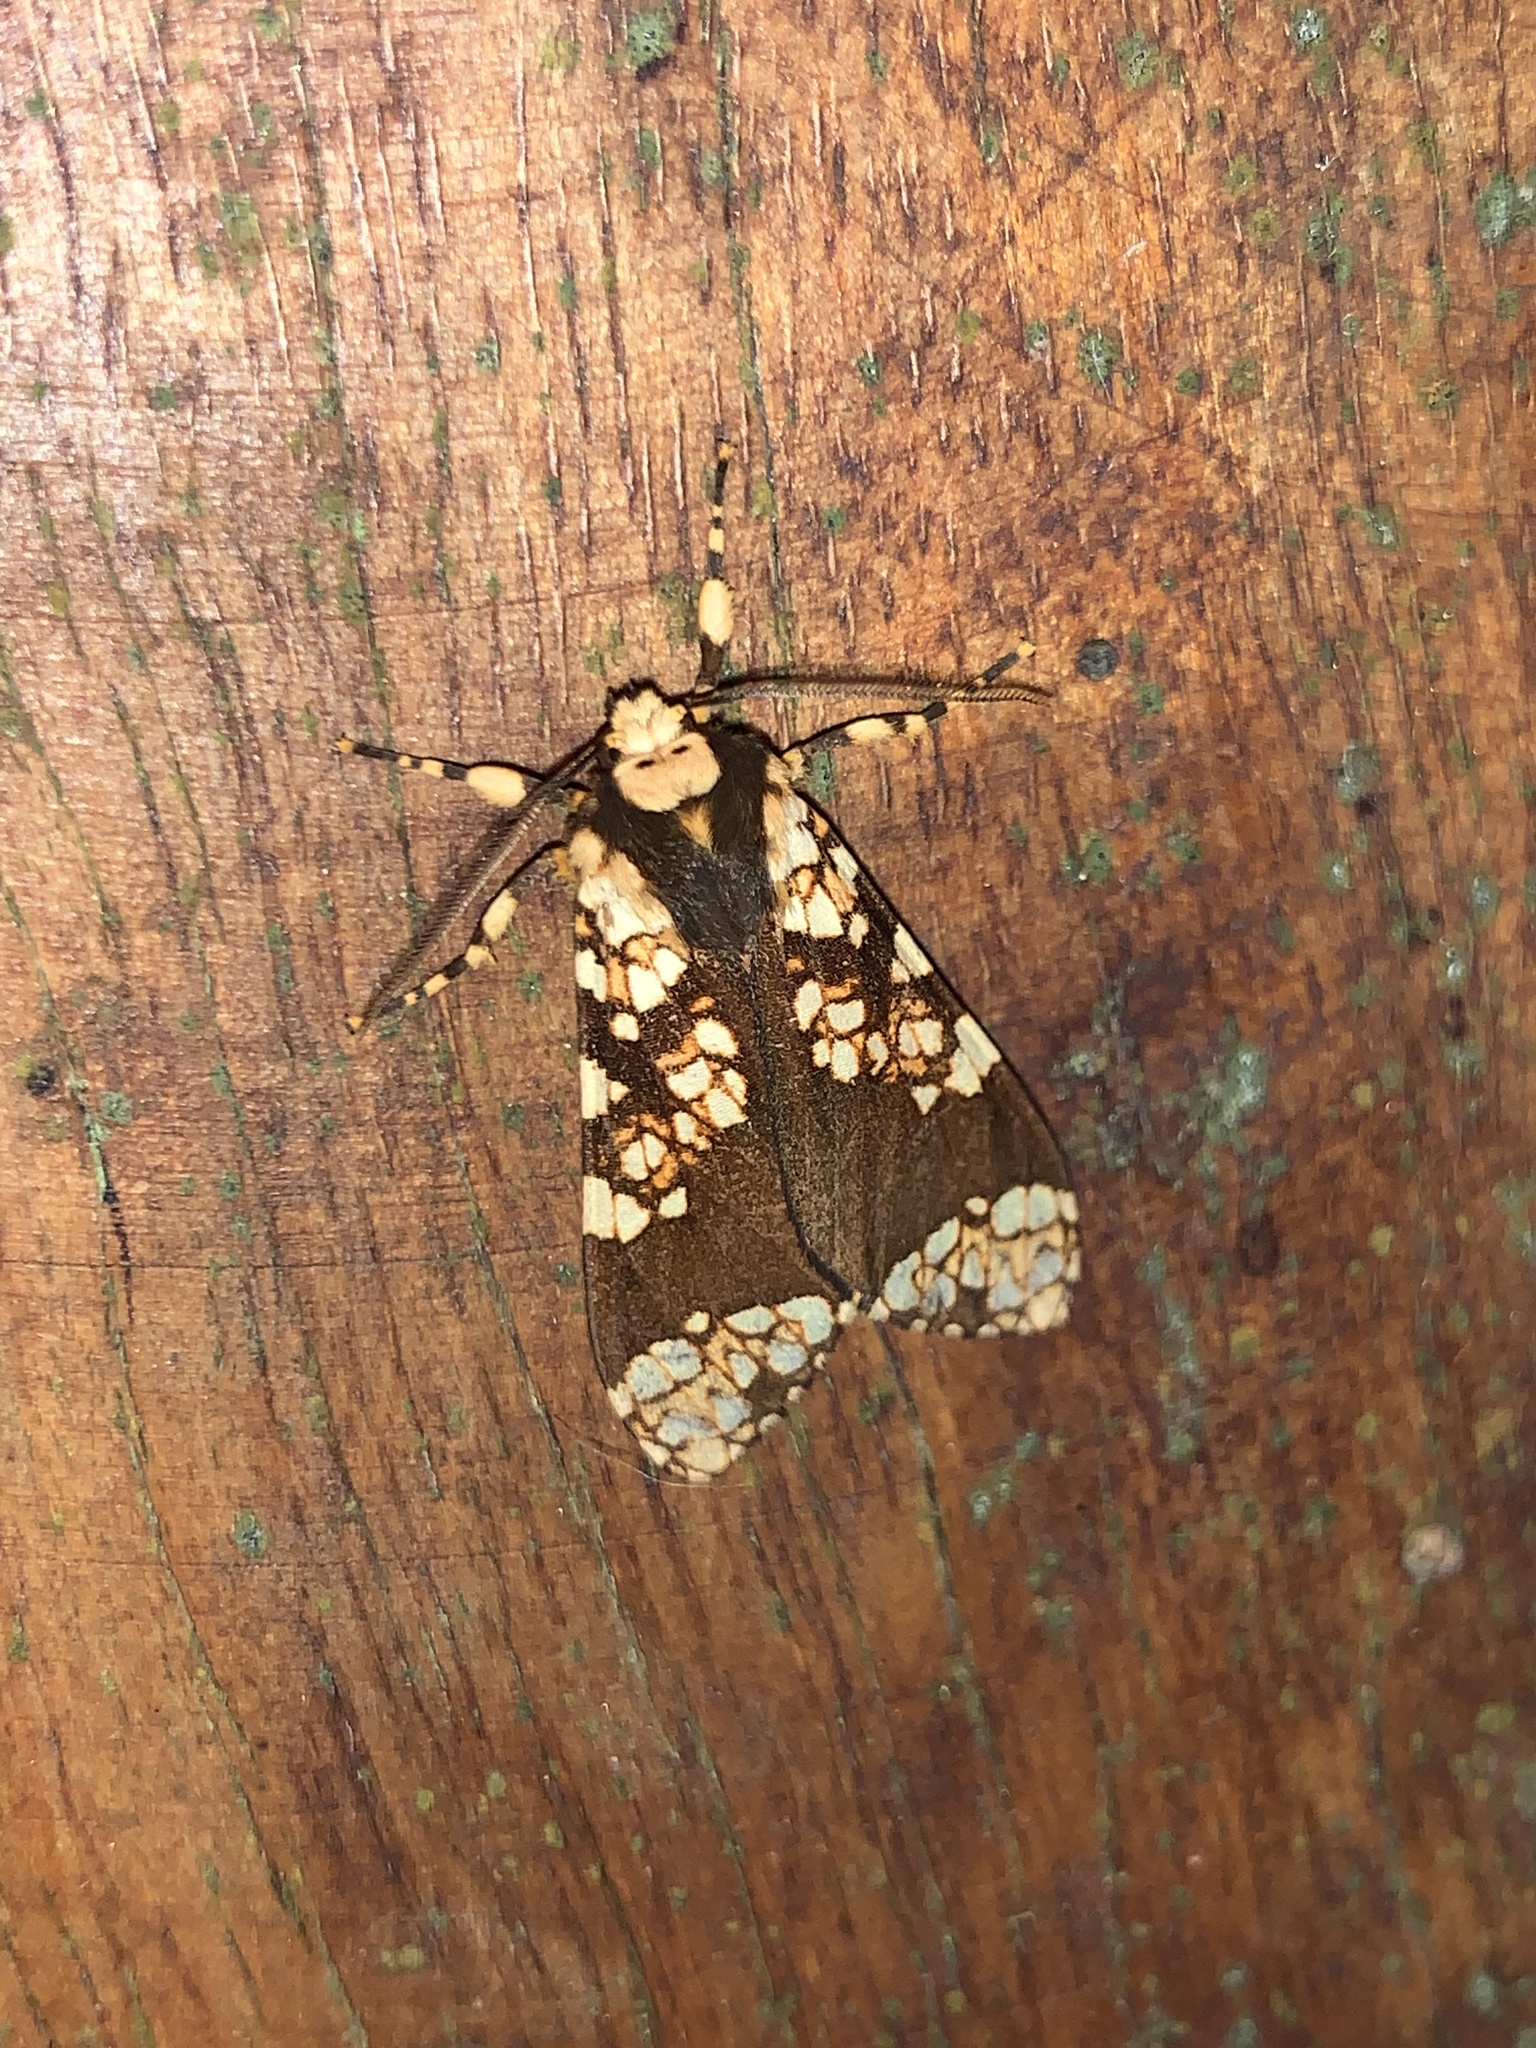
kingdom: Animalia
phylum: Arthropoda
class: Insecta
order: Lepidoptera
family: Erebidae
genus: Aemilia
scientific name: Aemilia rubriplaga
